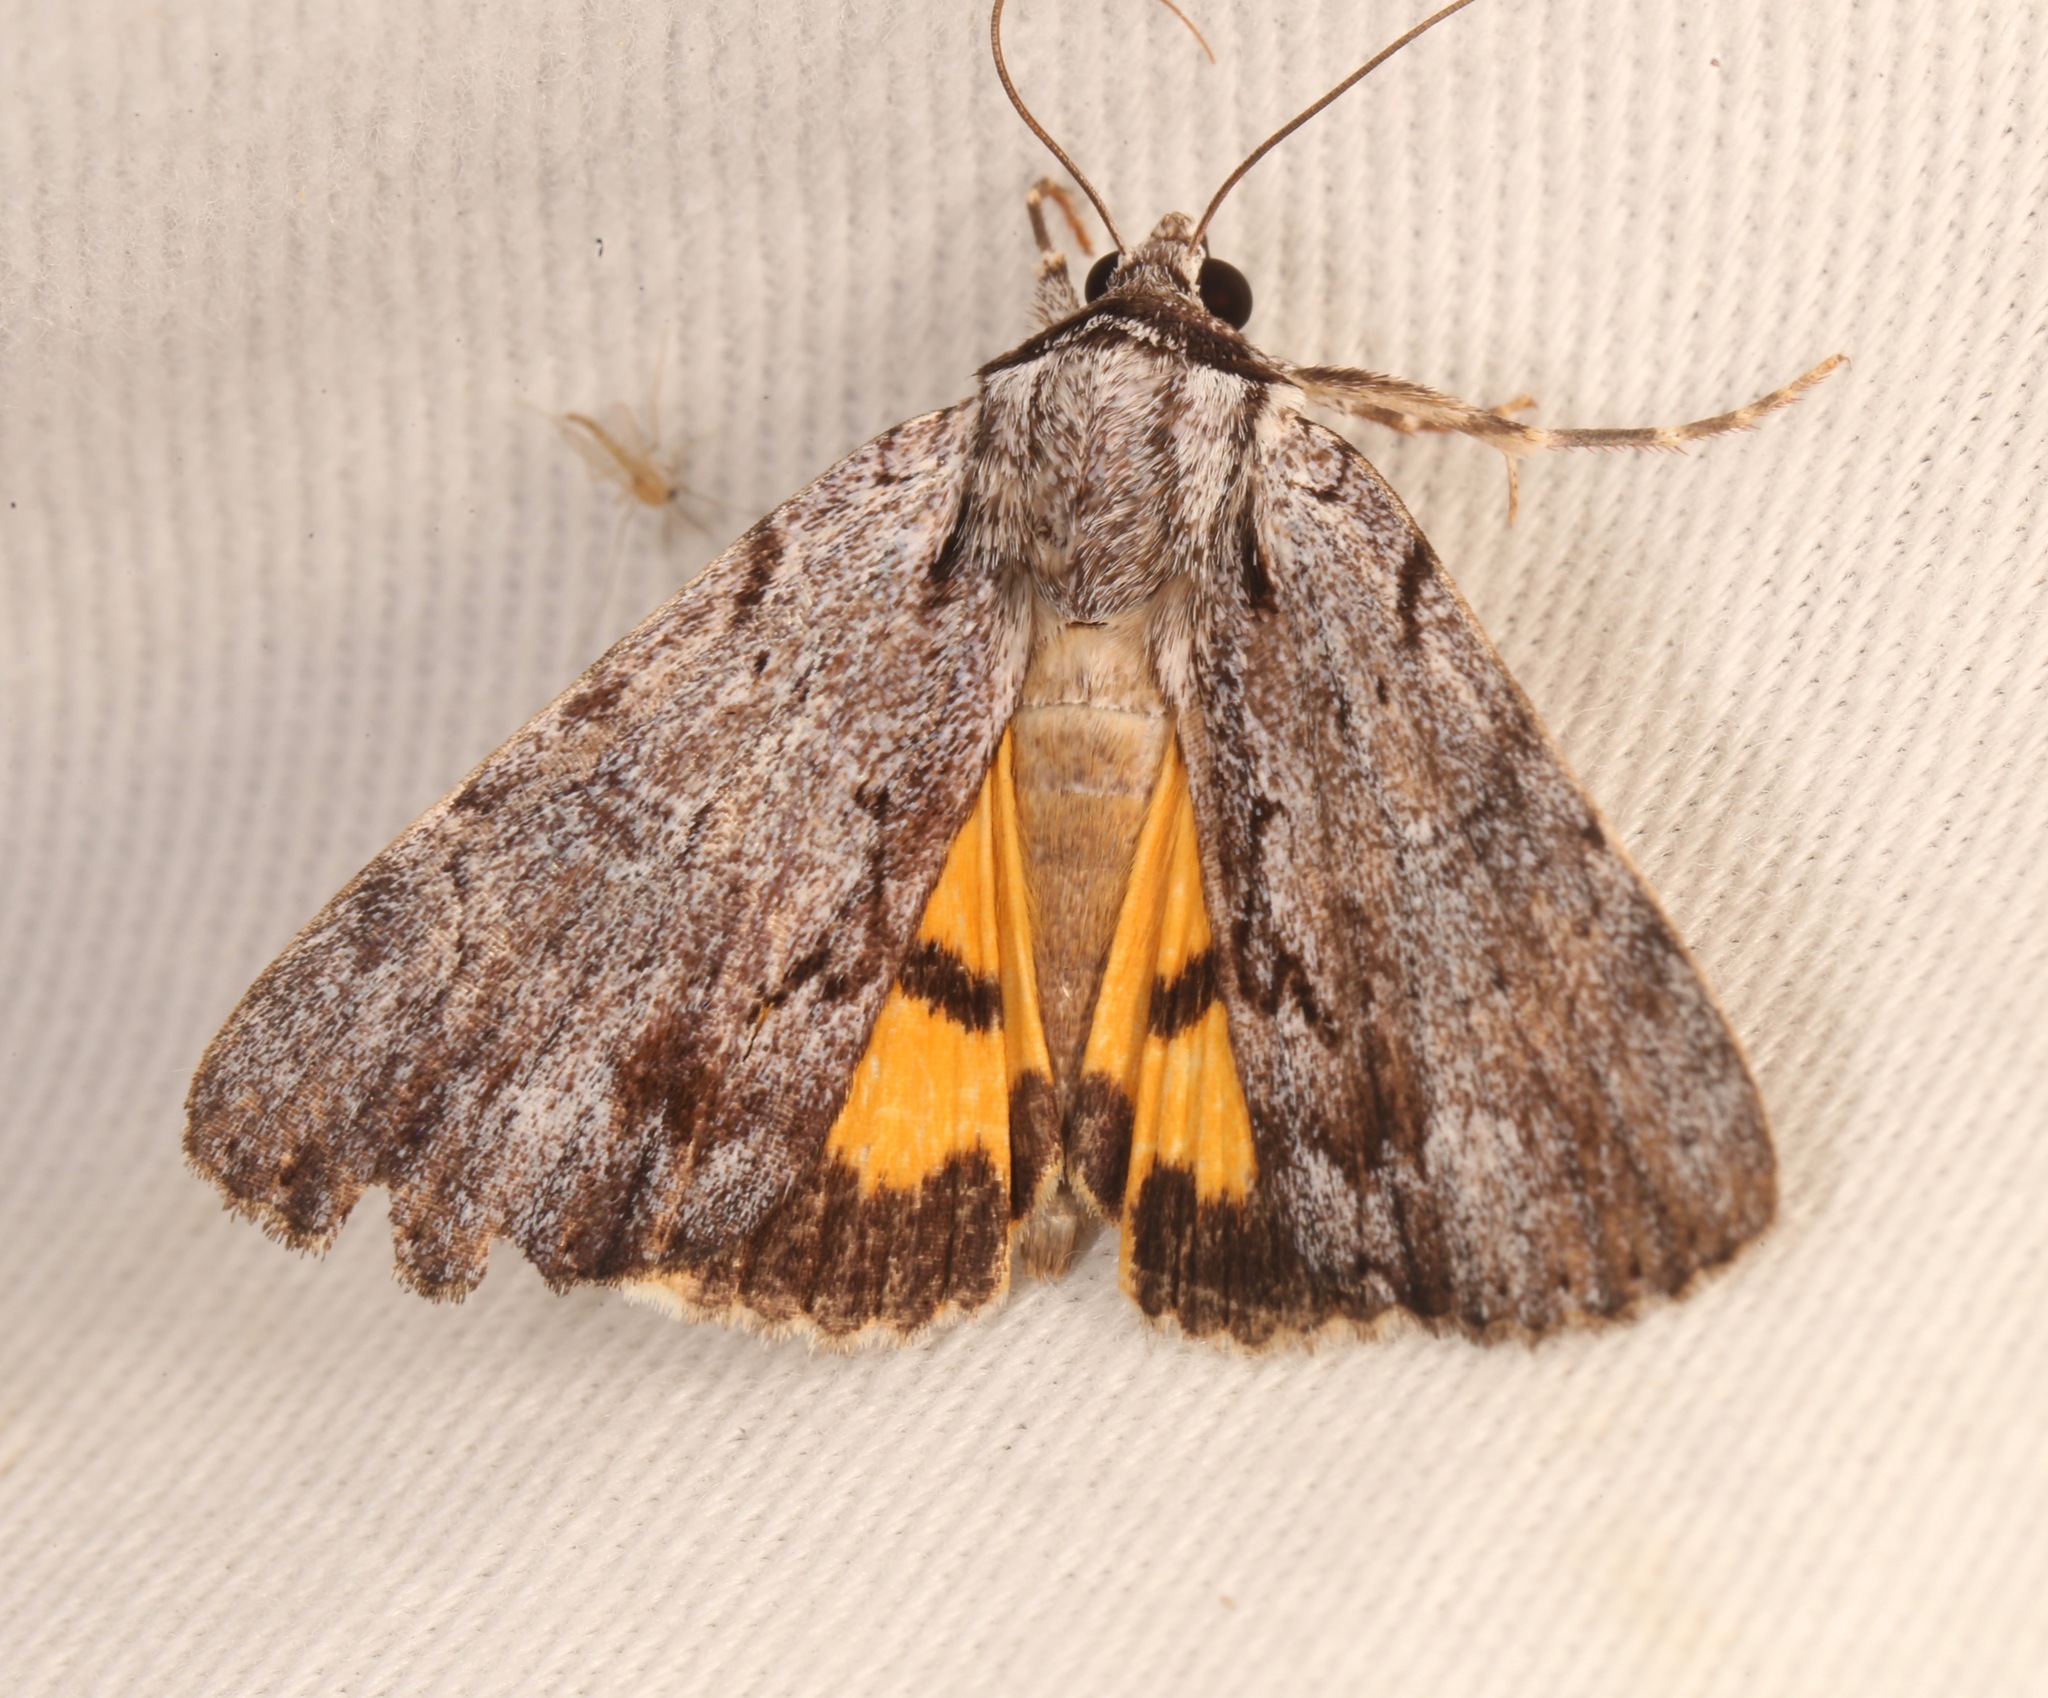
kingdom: Animalia
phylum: Arthropoda
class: Insecta
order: Lepidoptera
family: Erebidae
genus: Catocala
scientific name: Catocala gracilis
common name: Graceful underwing
